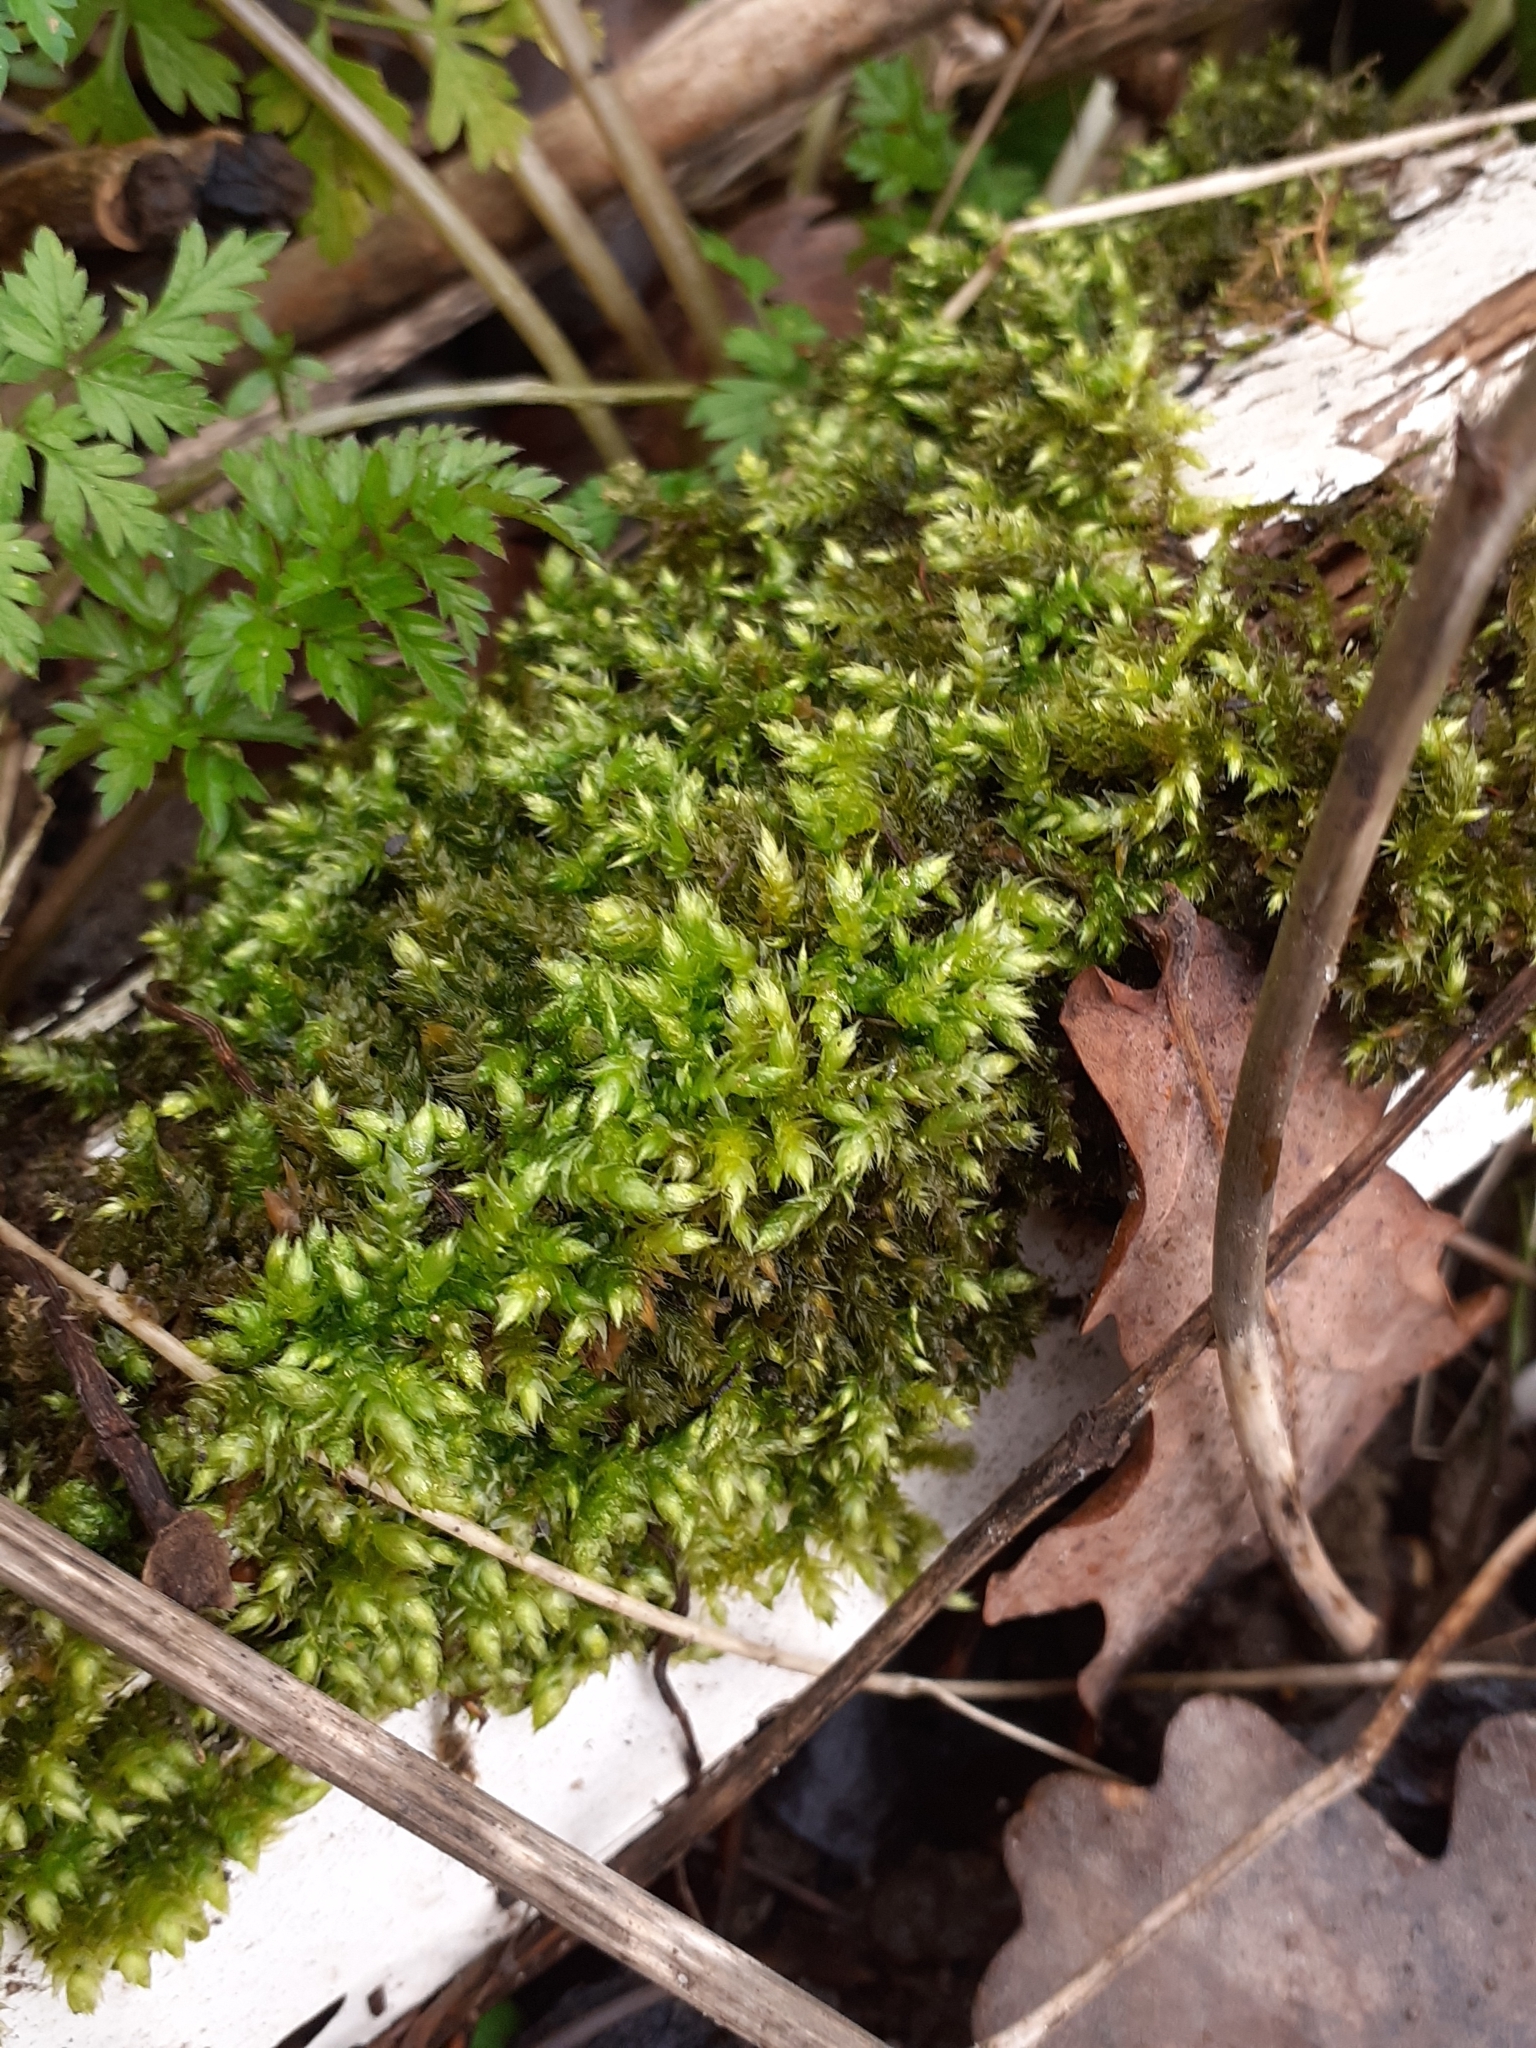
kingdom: Plantae
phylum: Bryophyta
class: Bryopsida
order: Hypnales
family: Brachytheciaceae
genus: Brachythecium
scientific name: Brachythecium rutabulum
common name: Rough-stalked feather-moss
